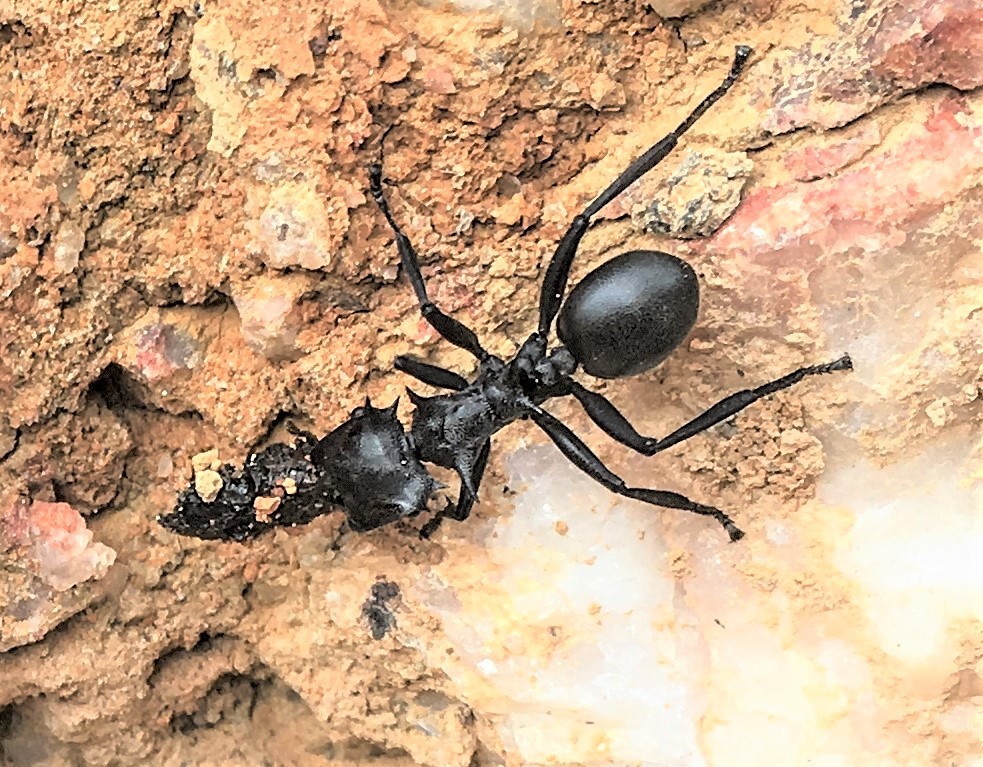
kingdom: Animalia
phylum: Arthropoda
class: Insecta
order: Hymenoptera
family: Formicidae
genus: Cephalotes
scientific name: Cephalotes atratus
